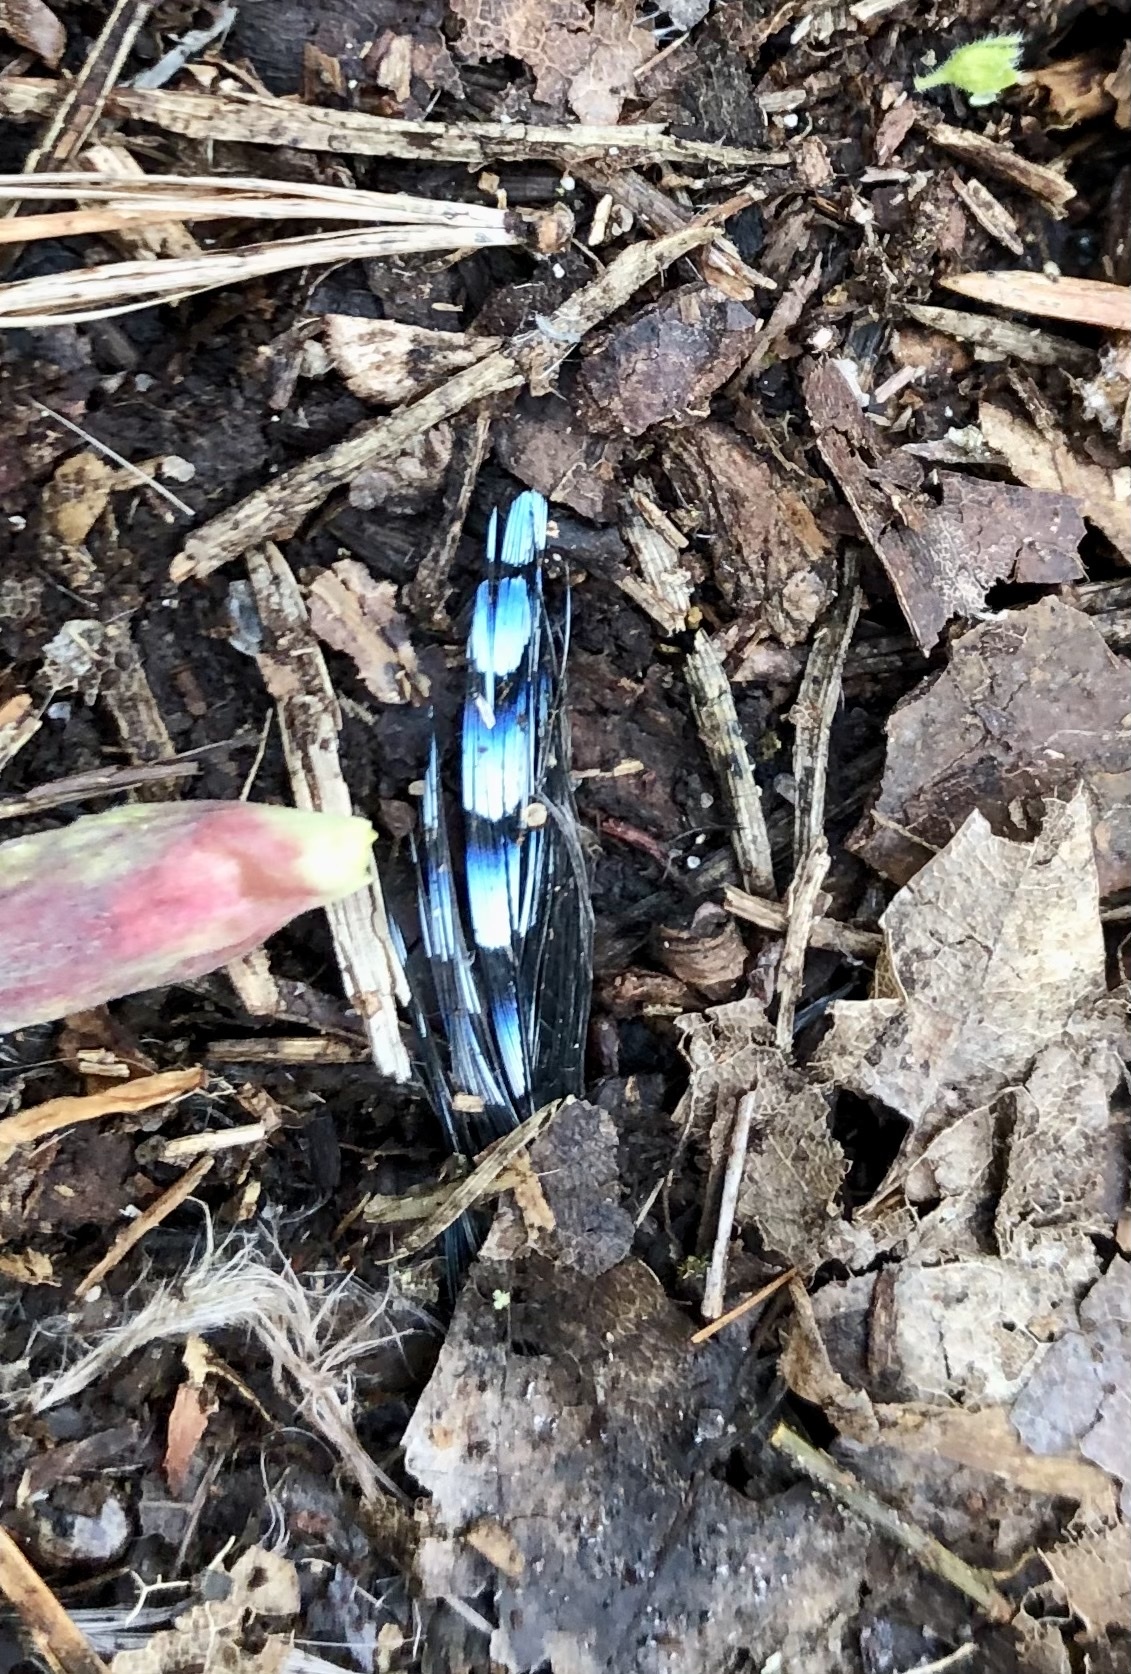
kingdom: Animalia
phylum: Chordata
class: Aves
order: Passeriformes
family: Corvidae
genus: Garrulus
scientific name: Garrulus glandarius
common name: Eurasian jay
